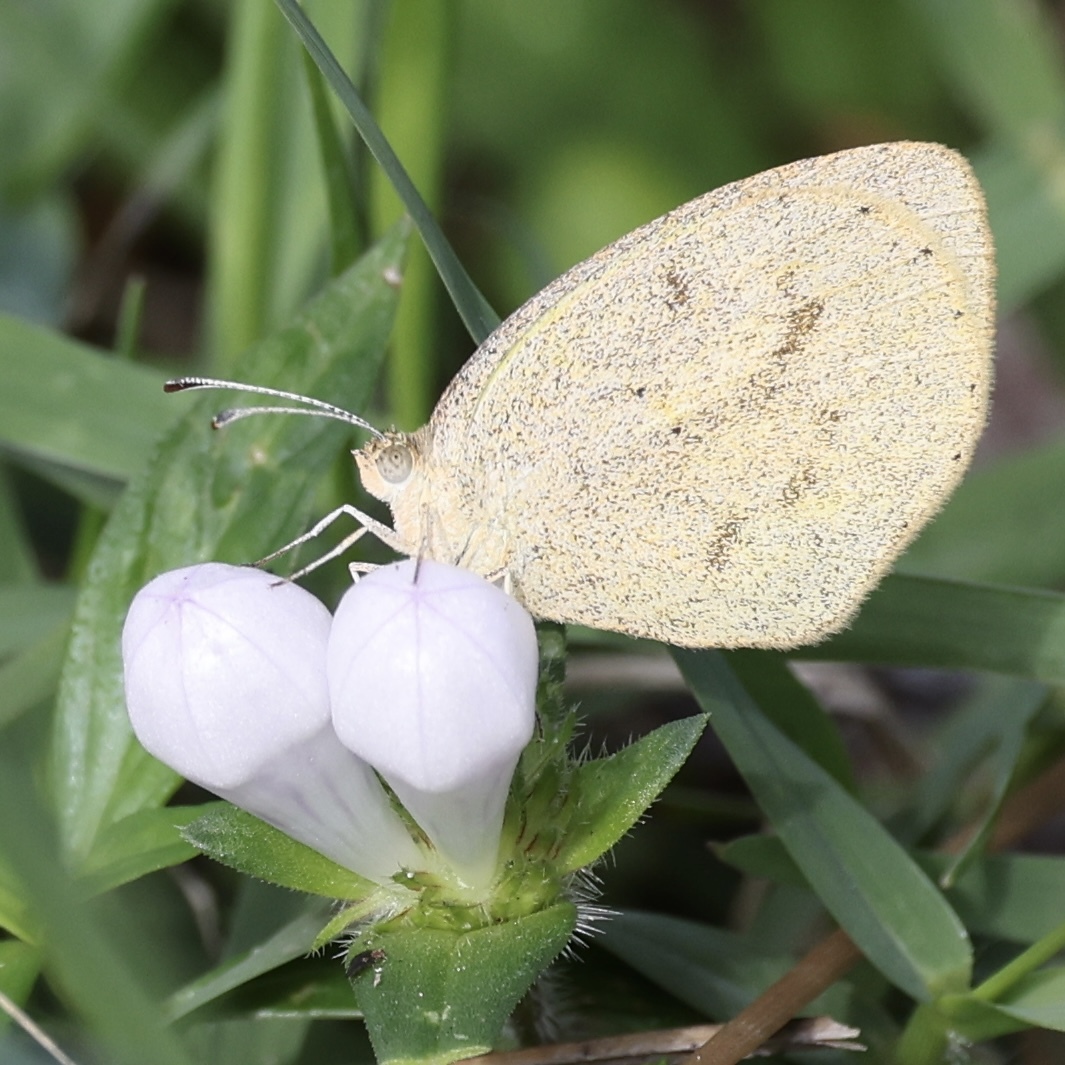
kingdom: Animalia
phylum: Arthropoda
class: Insecta
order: Lepidoptera
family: Pieridae
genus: Eurema
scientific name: Eurema daira
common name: Barred sulphur
